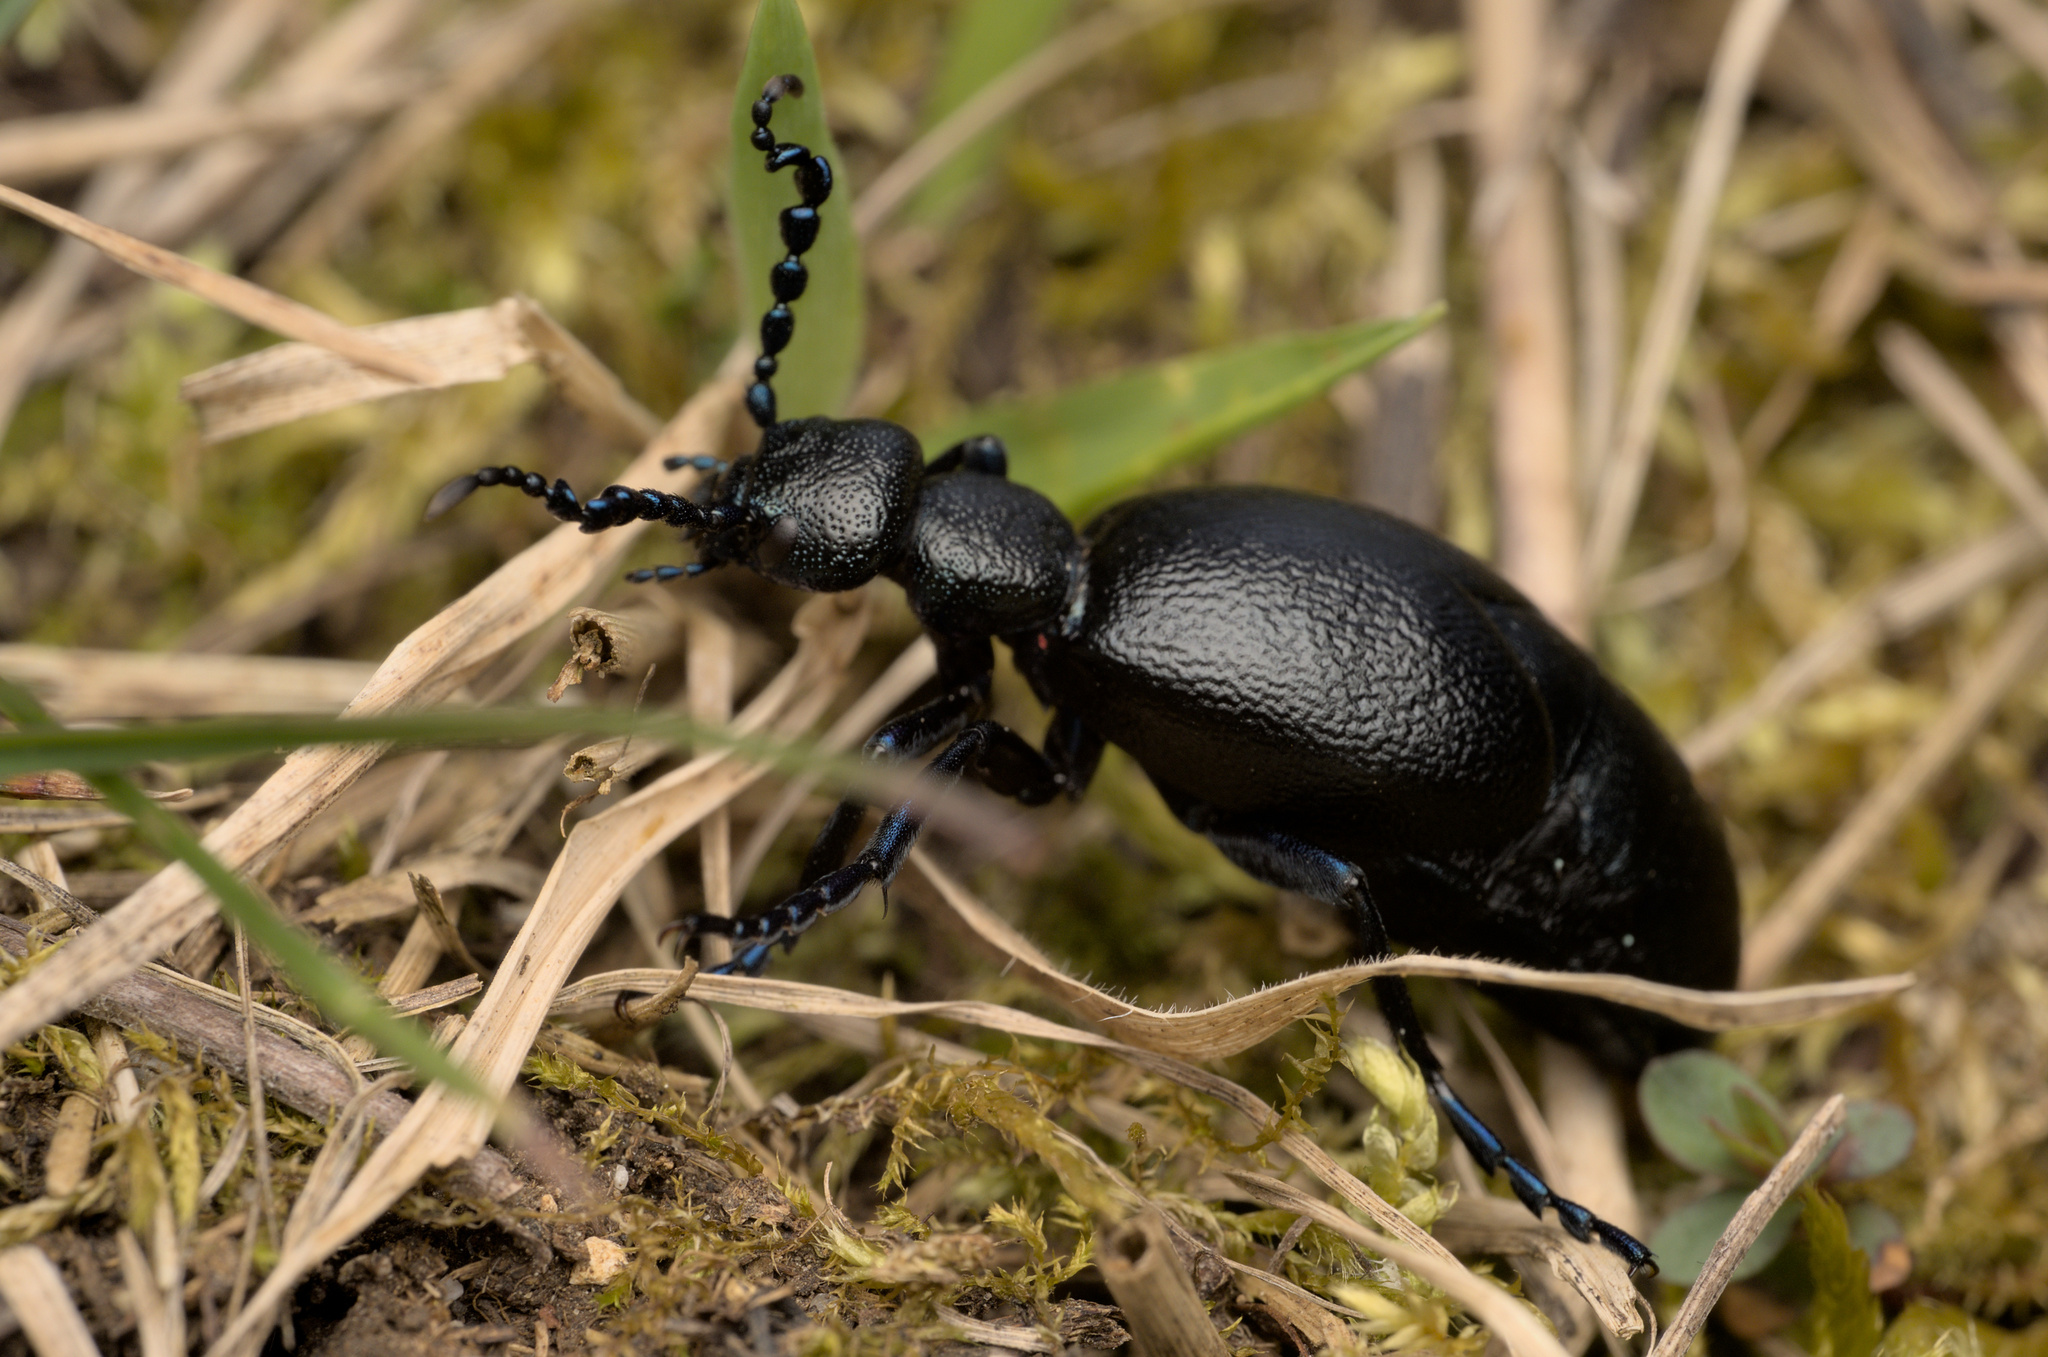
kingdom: Animalia
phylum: Arthropoda
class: Insecta
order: Coleoptera
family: Meloidae
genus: Meloe
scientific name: Meloe violaceus
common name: Violet oil-beetle
